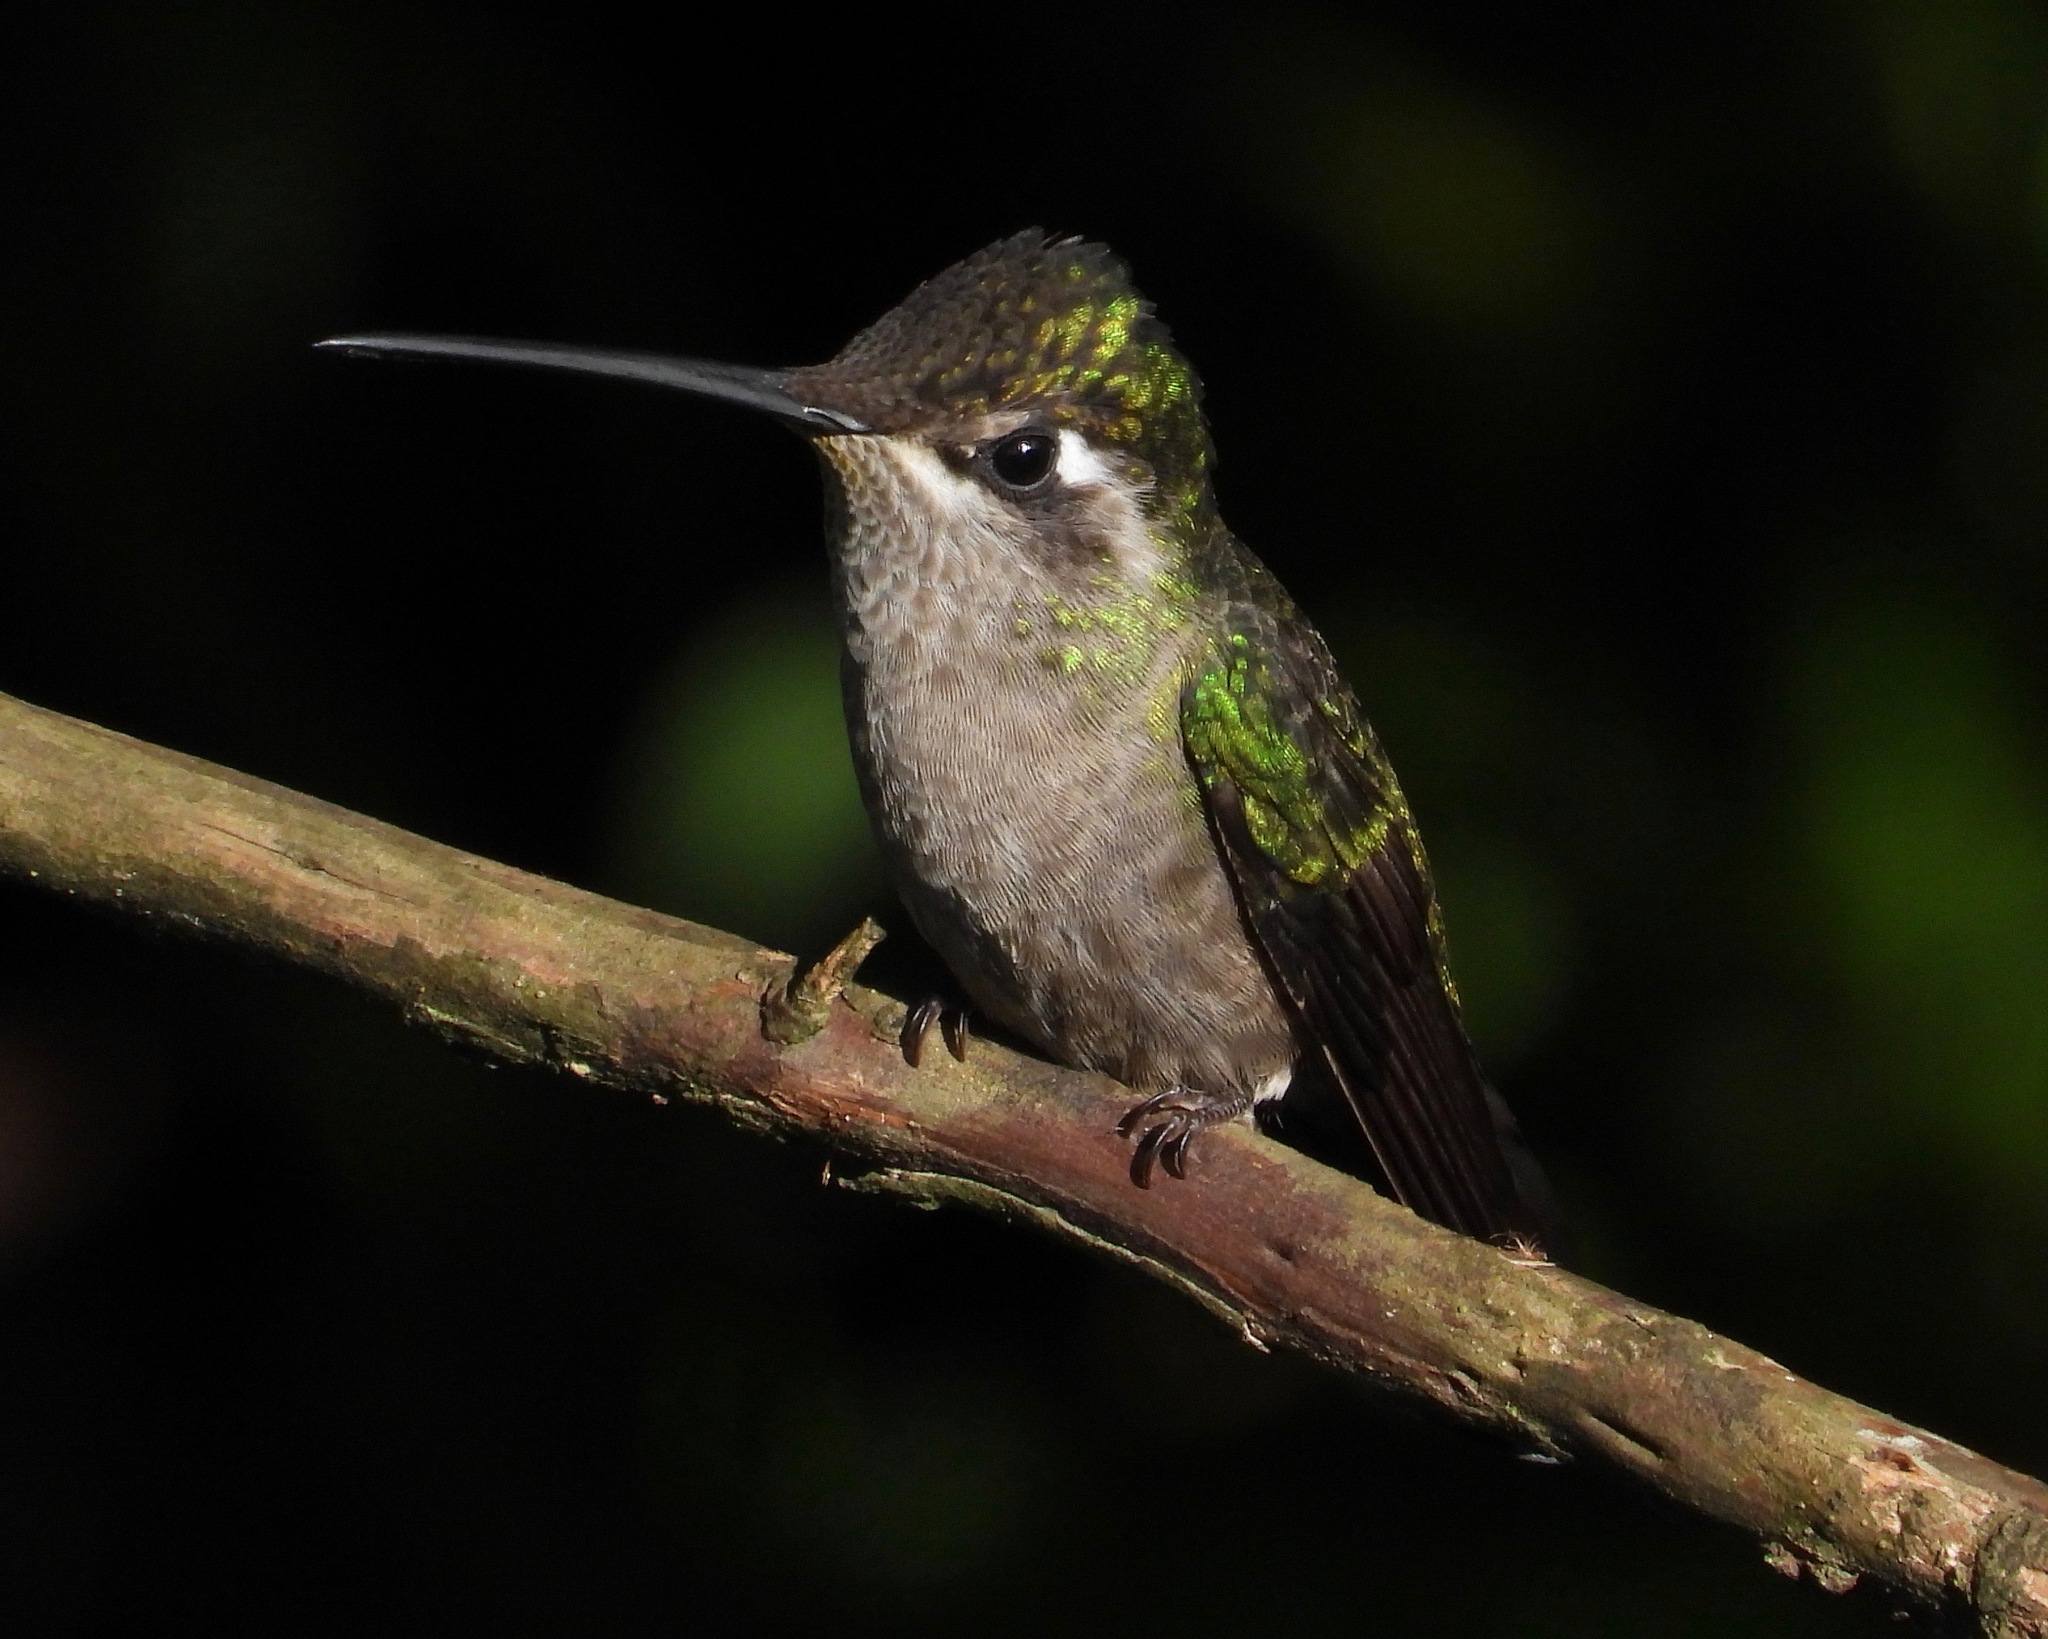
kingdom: Animalia
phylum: Chordata
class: Aves
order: Apodiformes
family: Trochilidae
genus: Eugenes
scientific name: Eugenes fulgens
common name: Magnificent hummingbird
